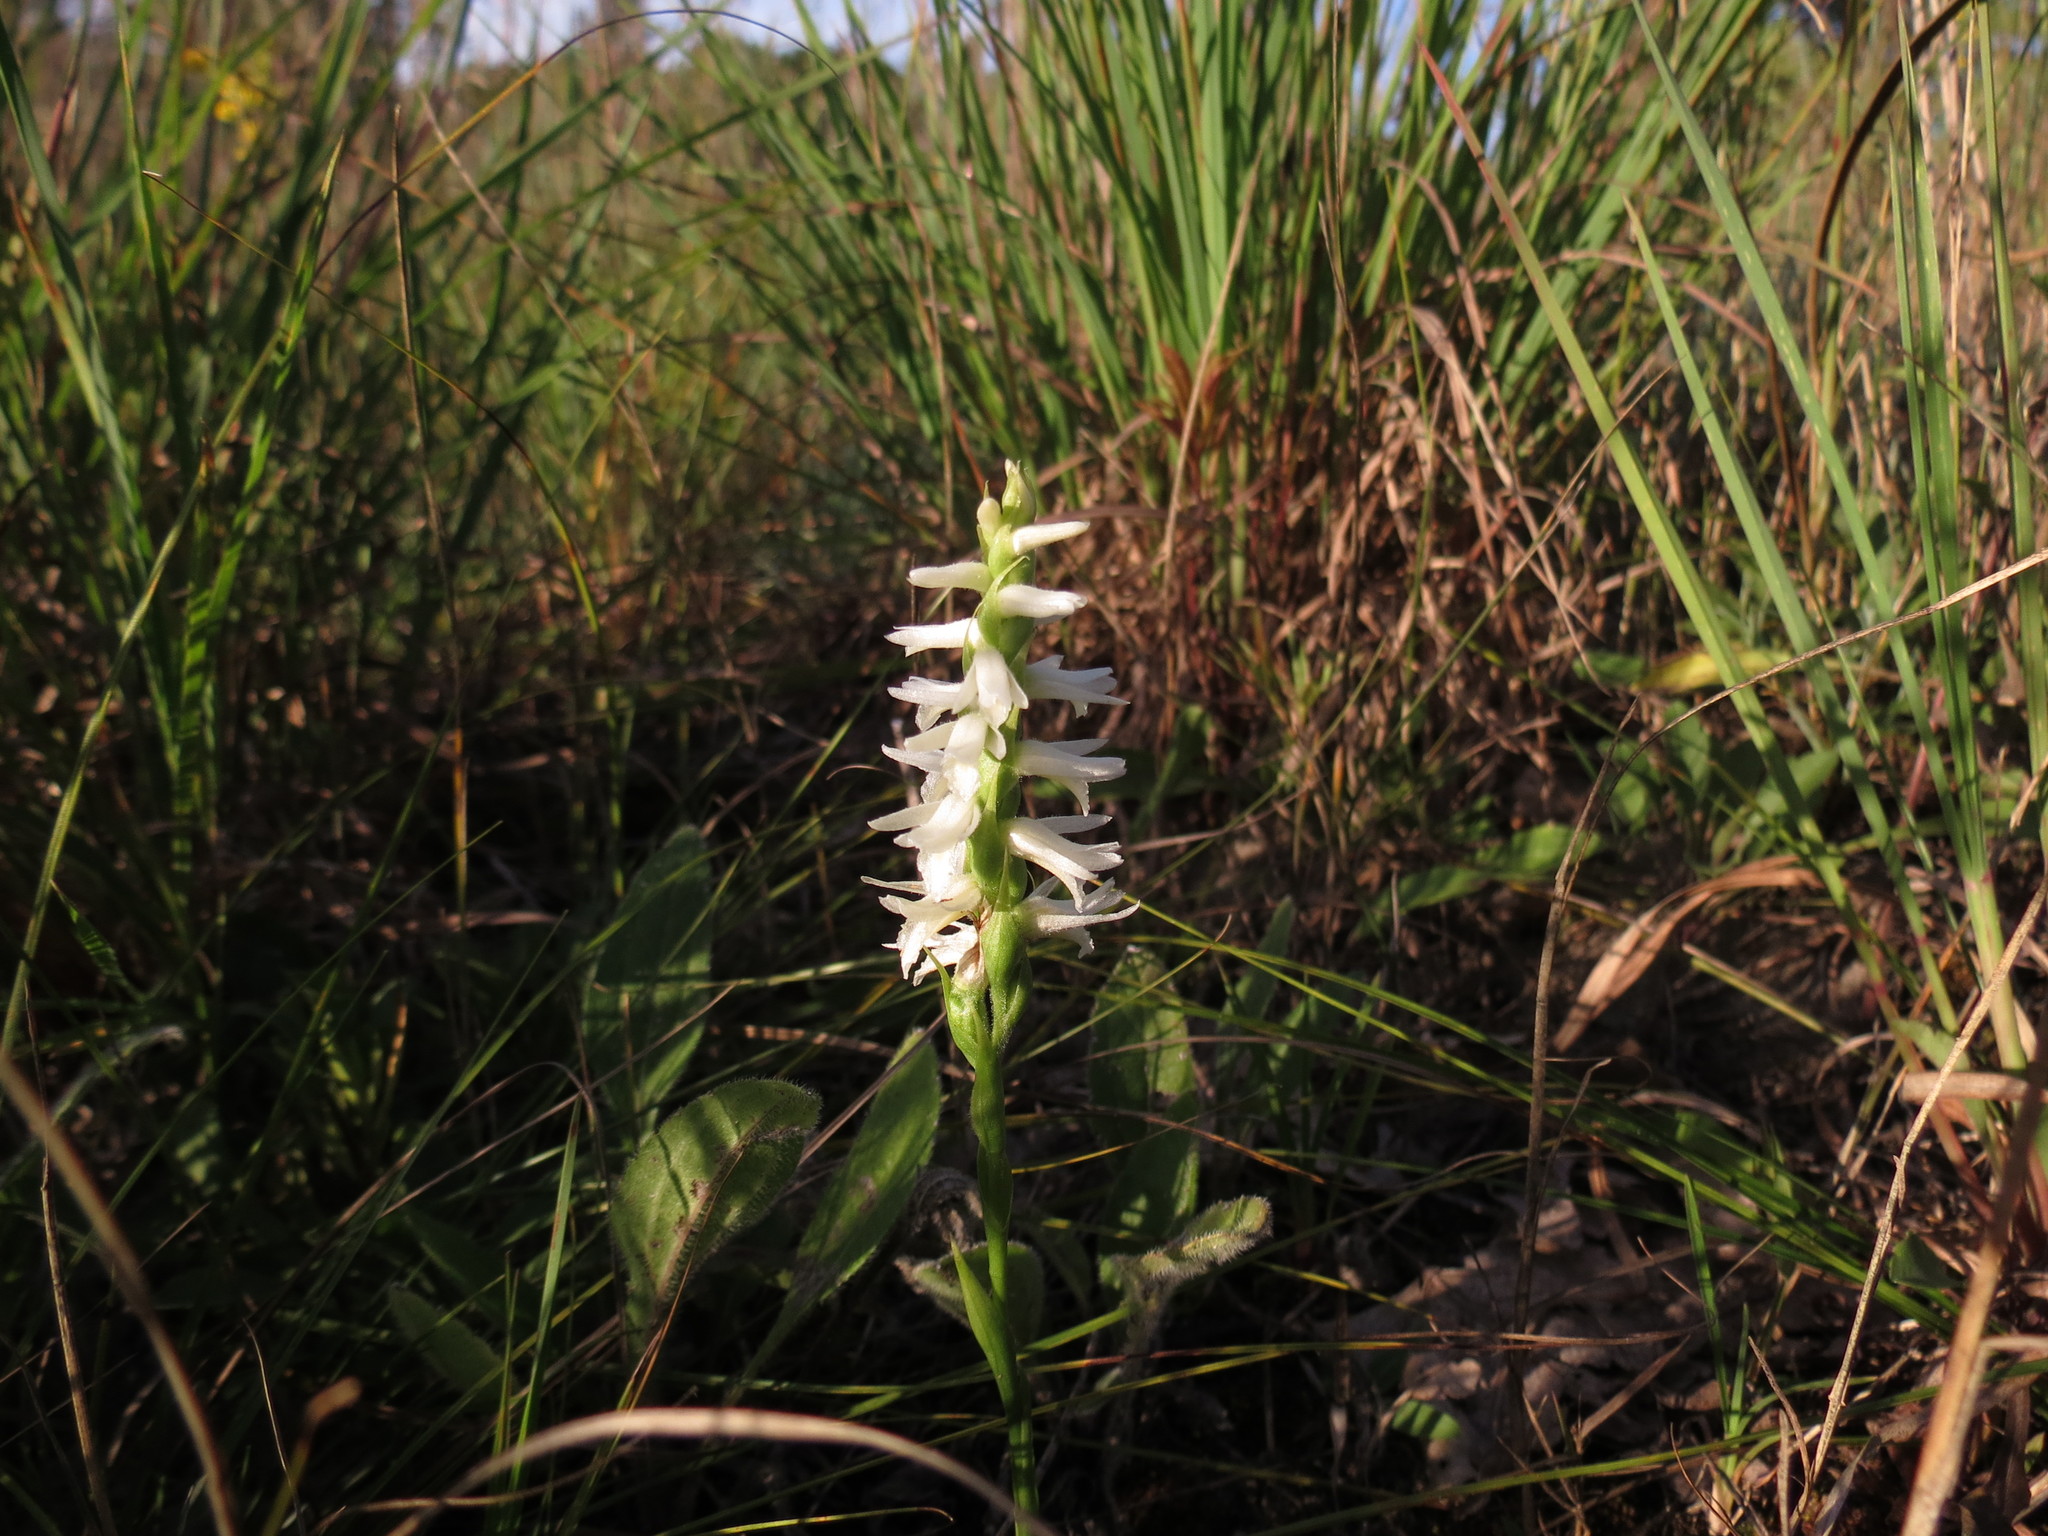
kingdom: Plantae
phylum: Tracheophyta
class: Liliopsida
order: Asparagales
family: Orchidaceae
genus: Spiranthes
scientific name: Spiranthes magnicamporum
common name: Great plains ladies'-tresses
